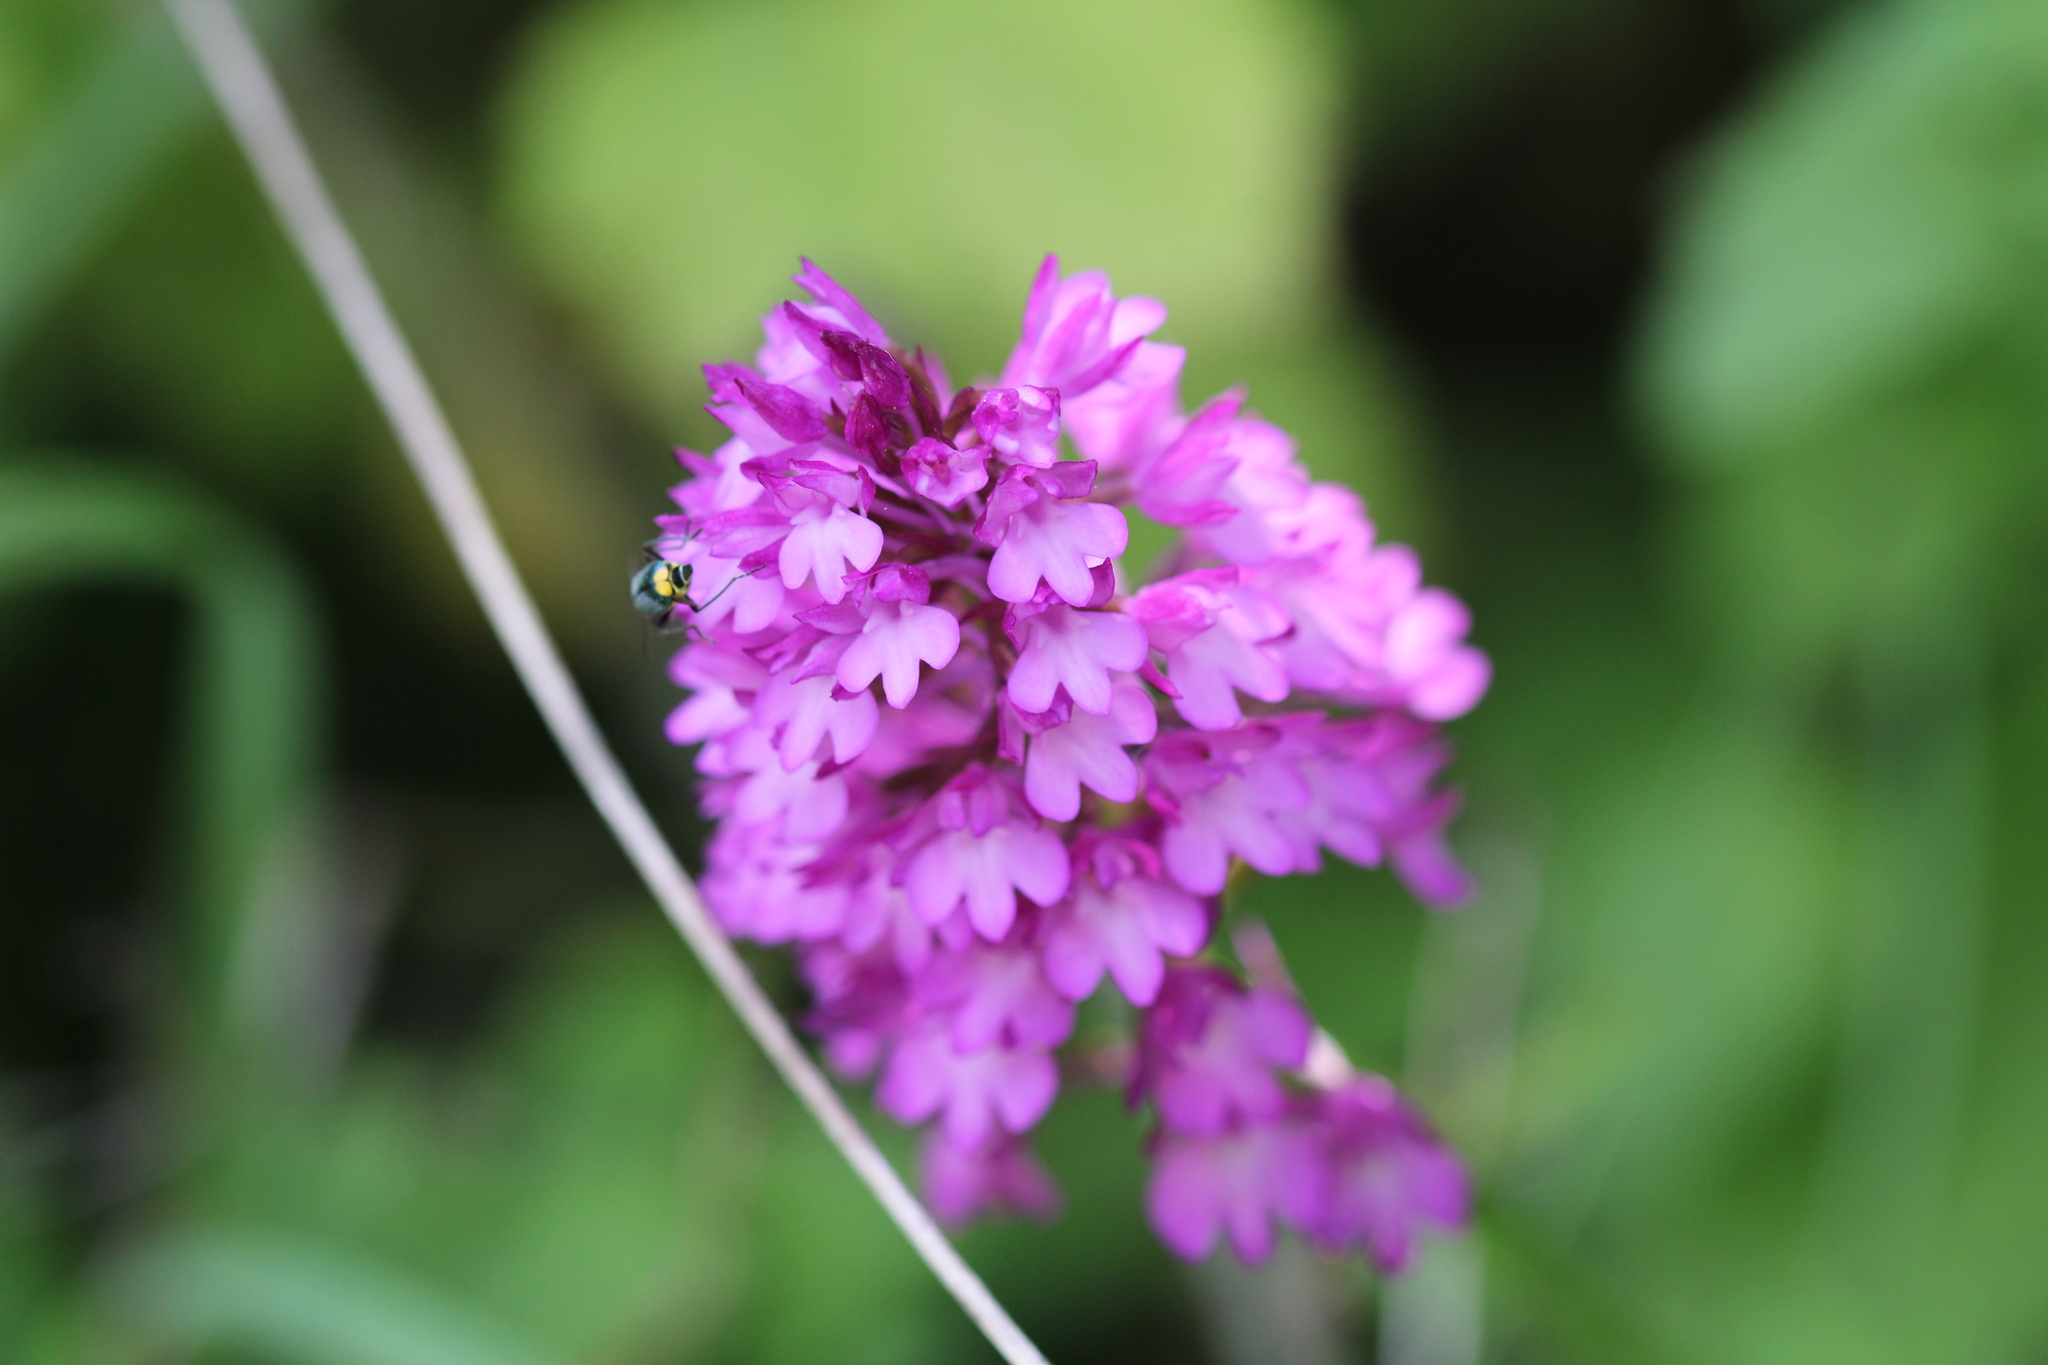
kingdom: Plantae
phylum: Tracheophyta
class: Liliopsida
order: Asparagales
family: Orchidaceae
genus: Anacamptis
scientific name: Anacamptis pyramidalis
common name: Pyramidal orchid
